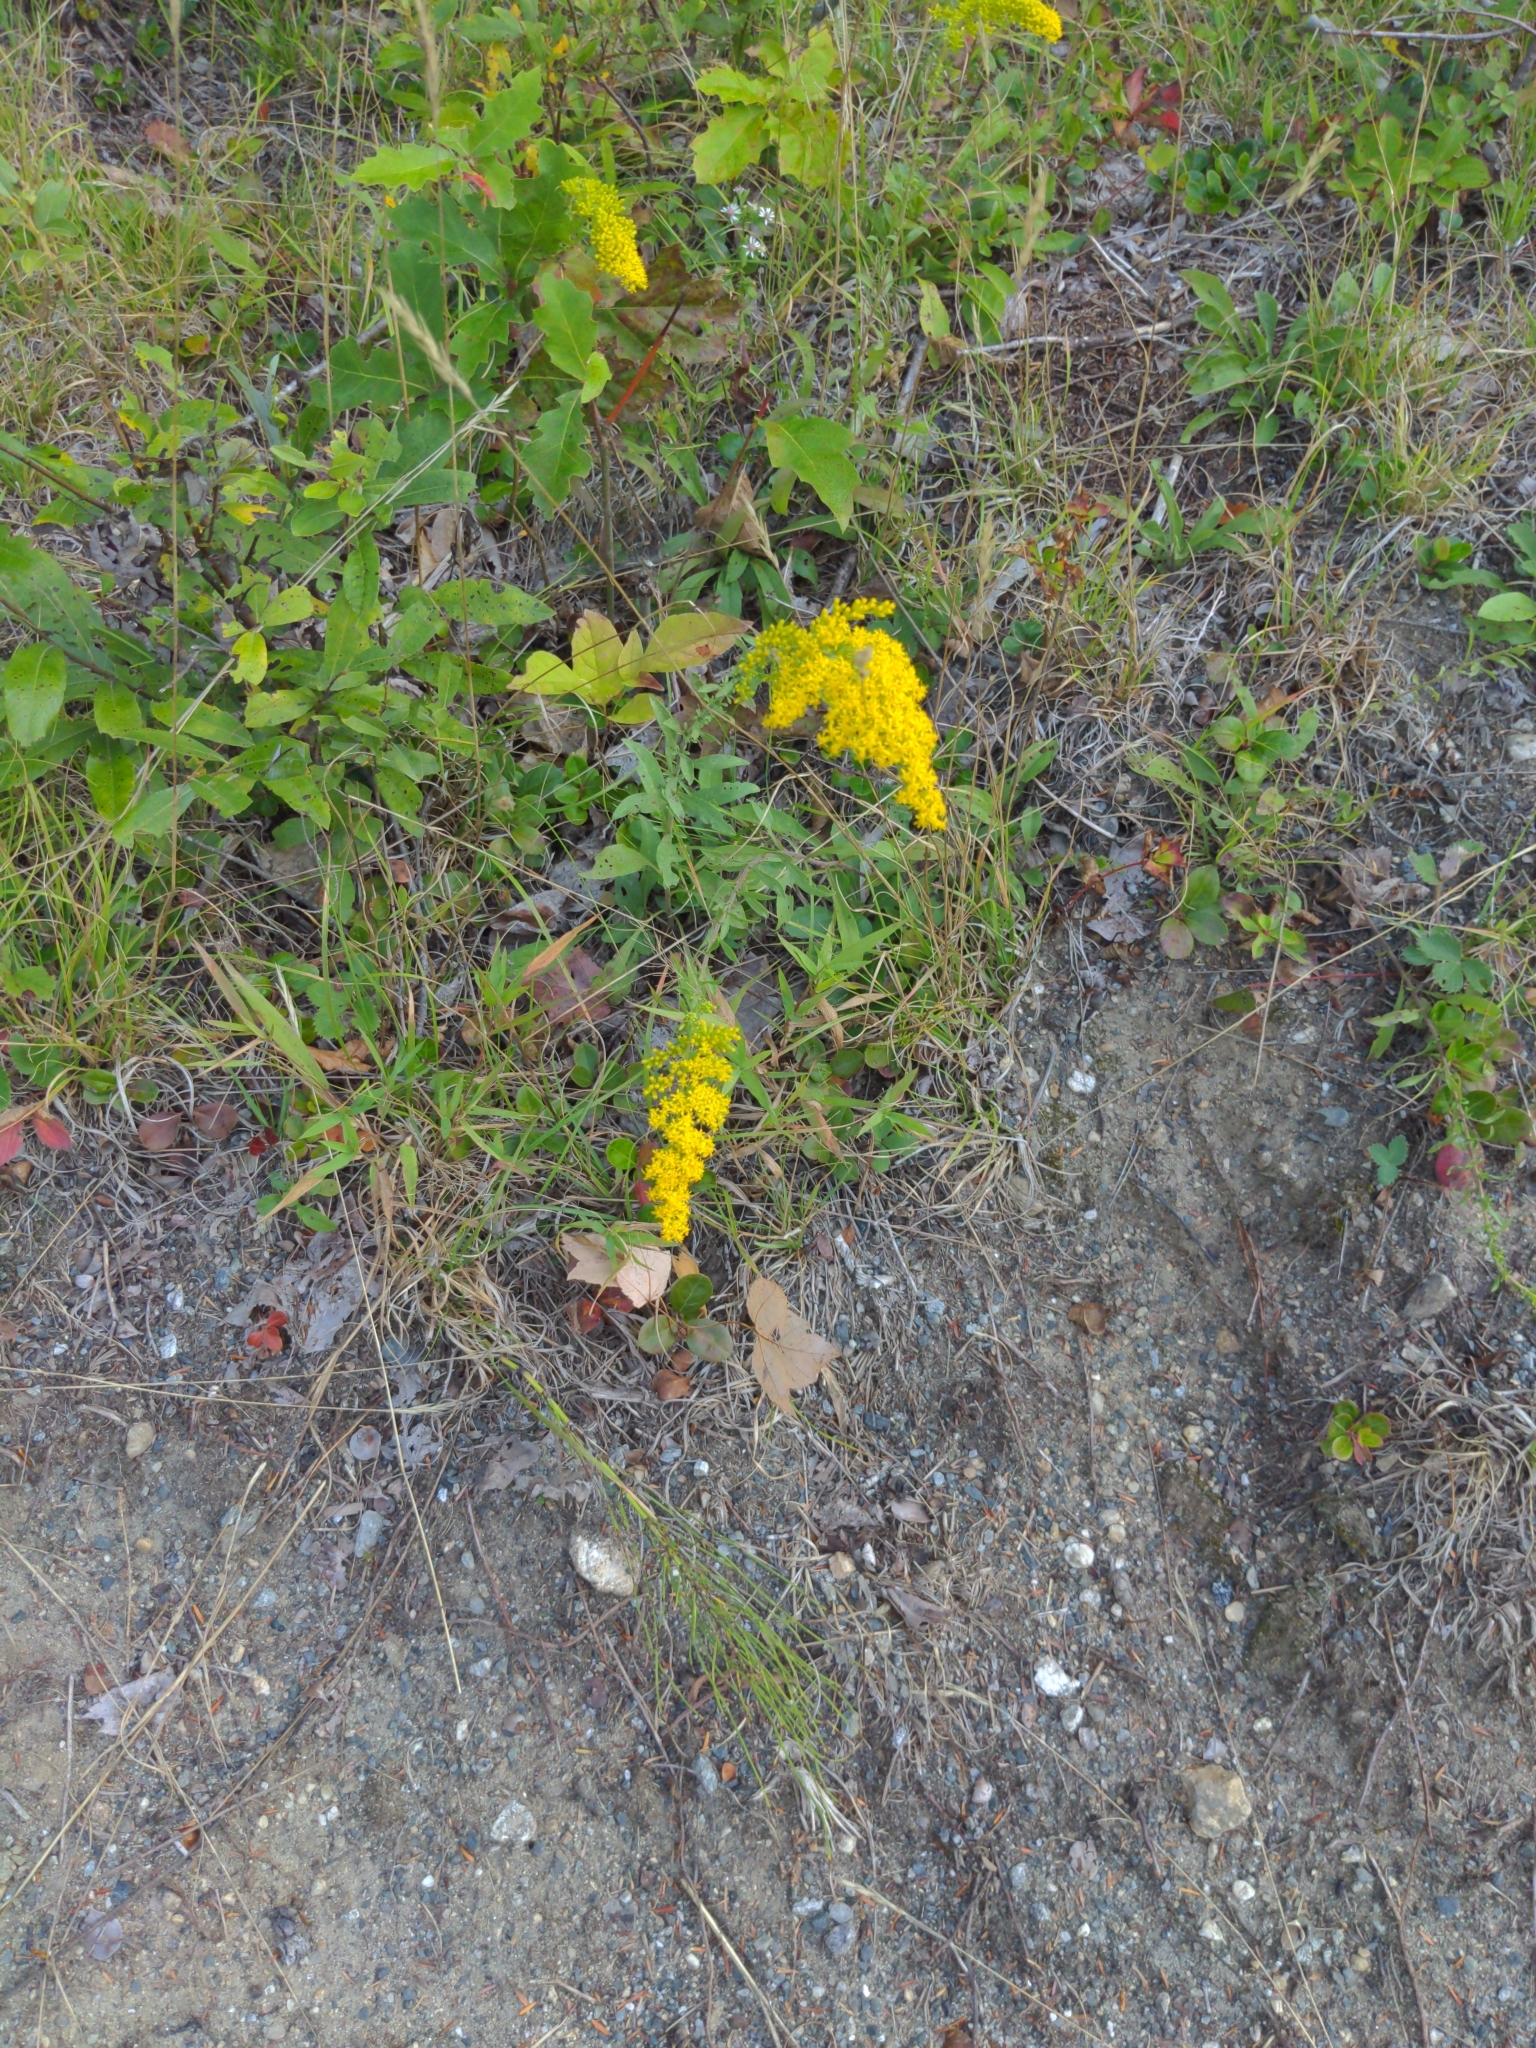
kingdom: Plantae
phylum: Tracheophyta
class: Magnoliopsida
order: Asterales
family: Asteraceae
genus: Solidago
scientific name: Solidago nemoralis
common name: Grey goldenrod
